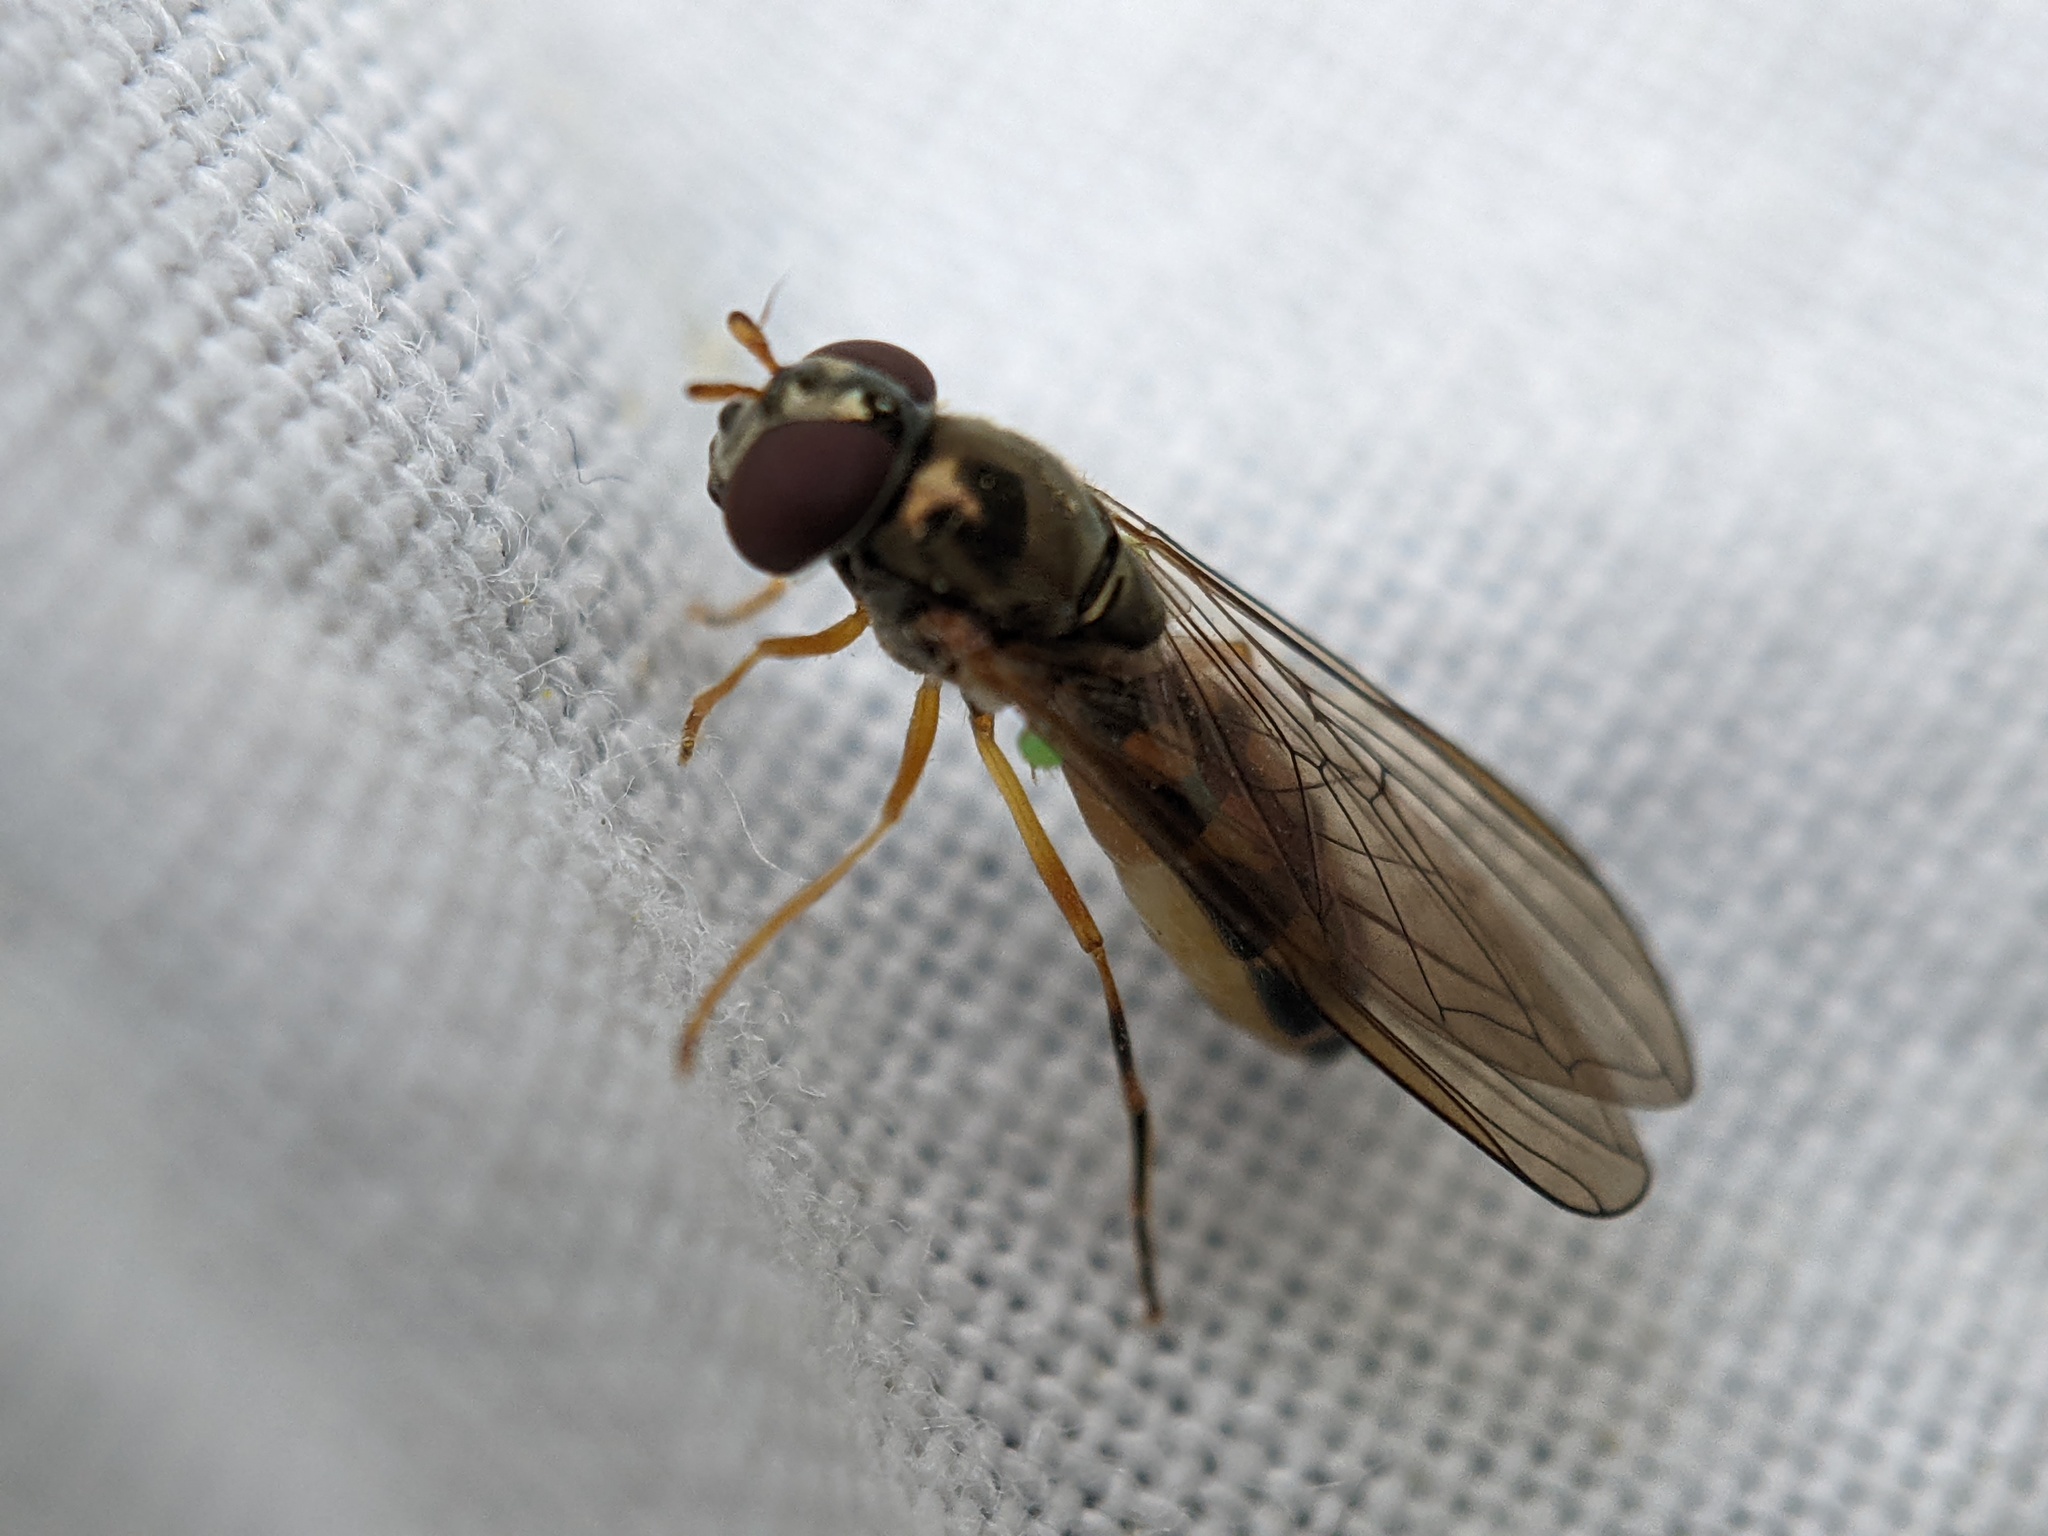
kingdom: Animalia
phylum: Arthropoda
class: Insecta
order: Diptera
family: Syrphidae
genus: Melanostoma
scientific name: Melanostoma scalare
